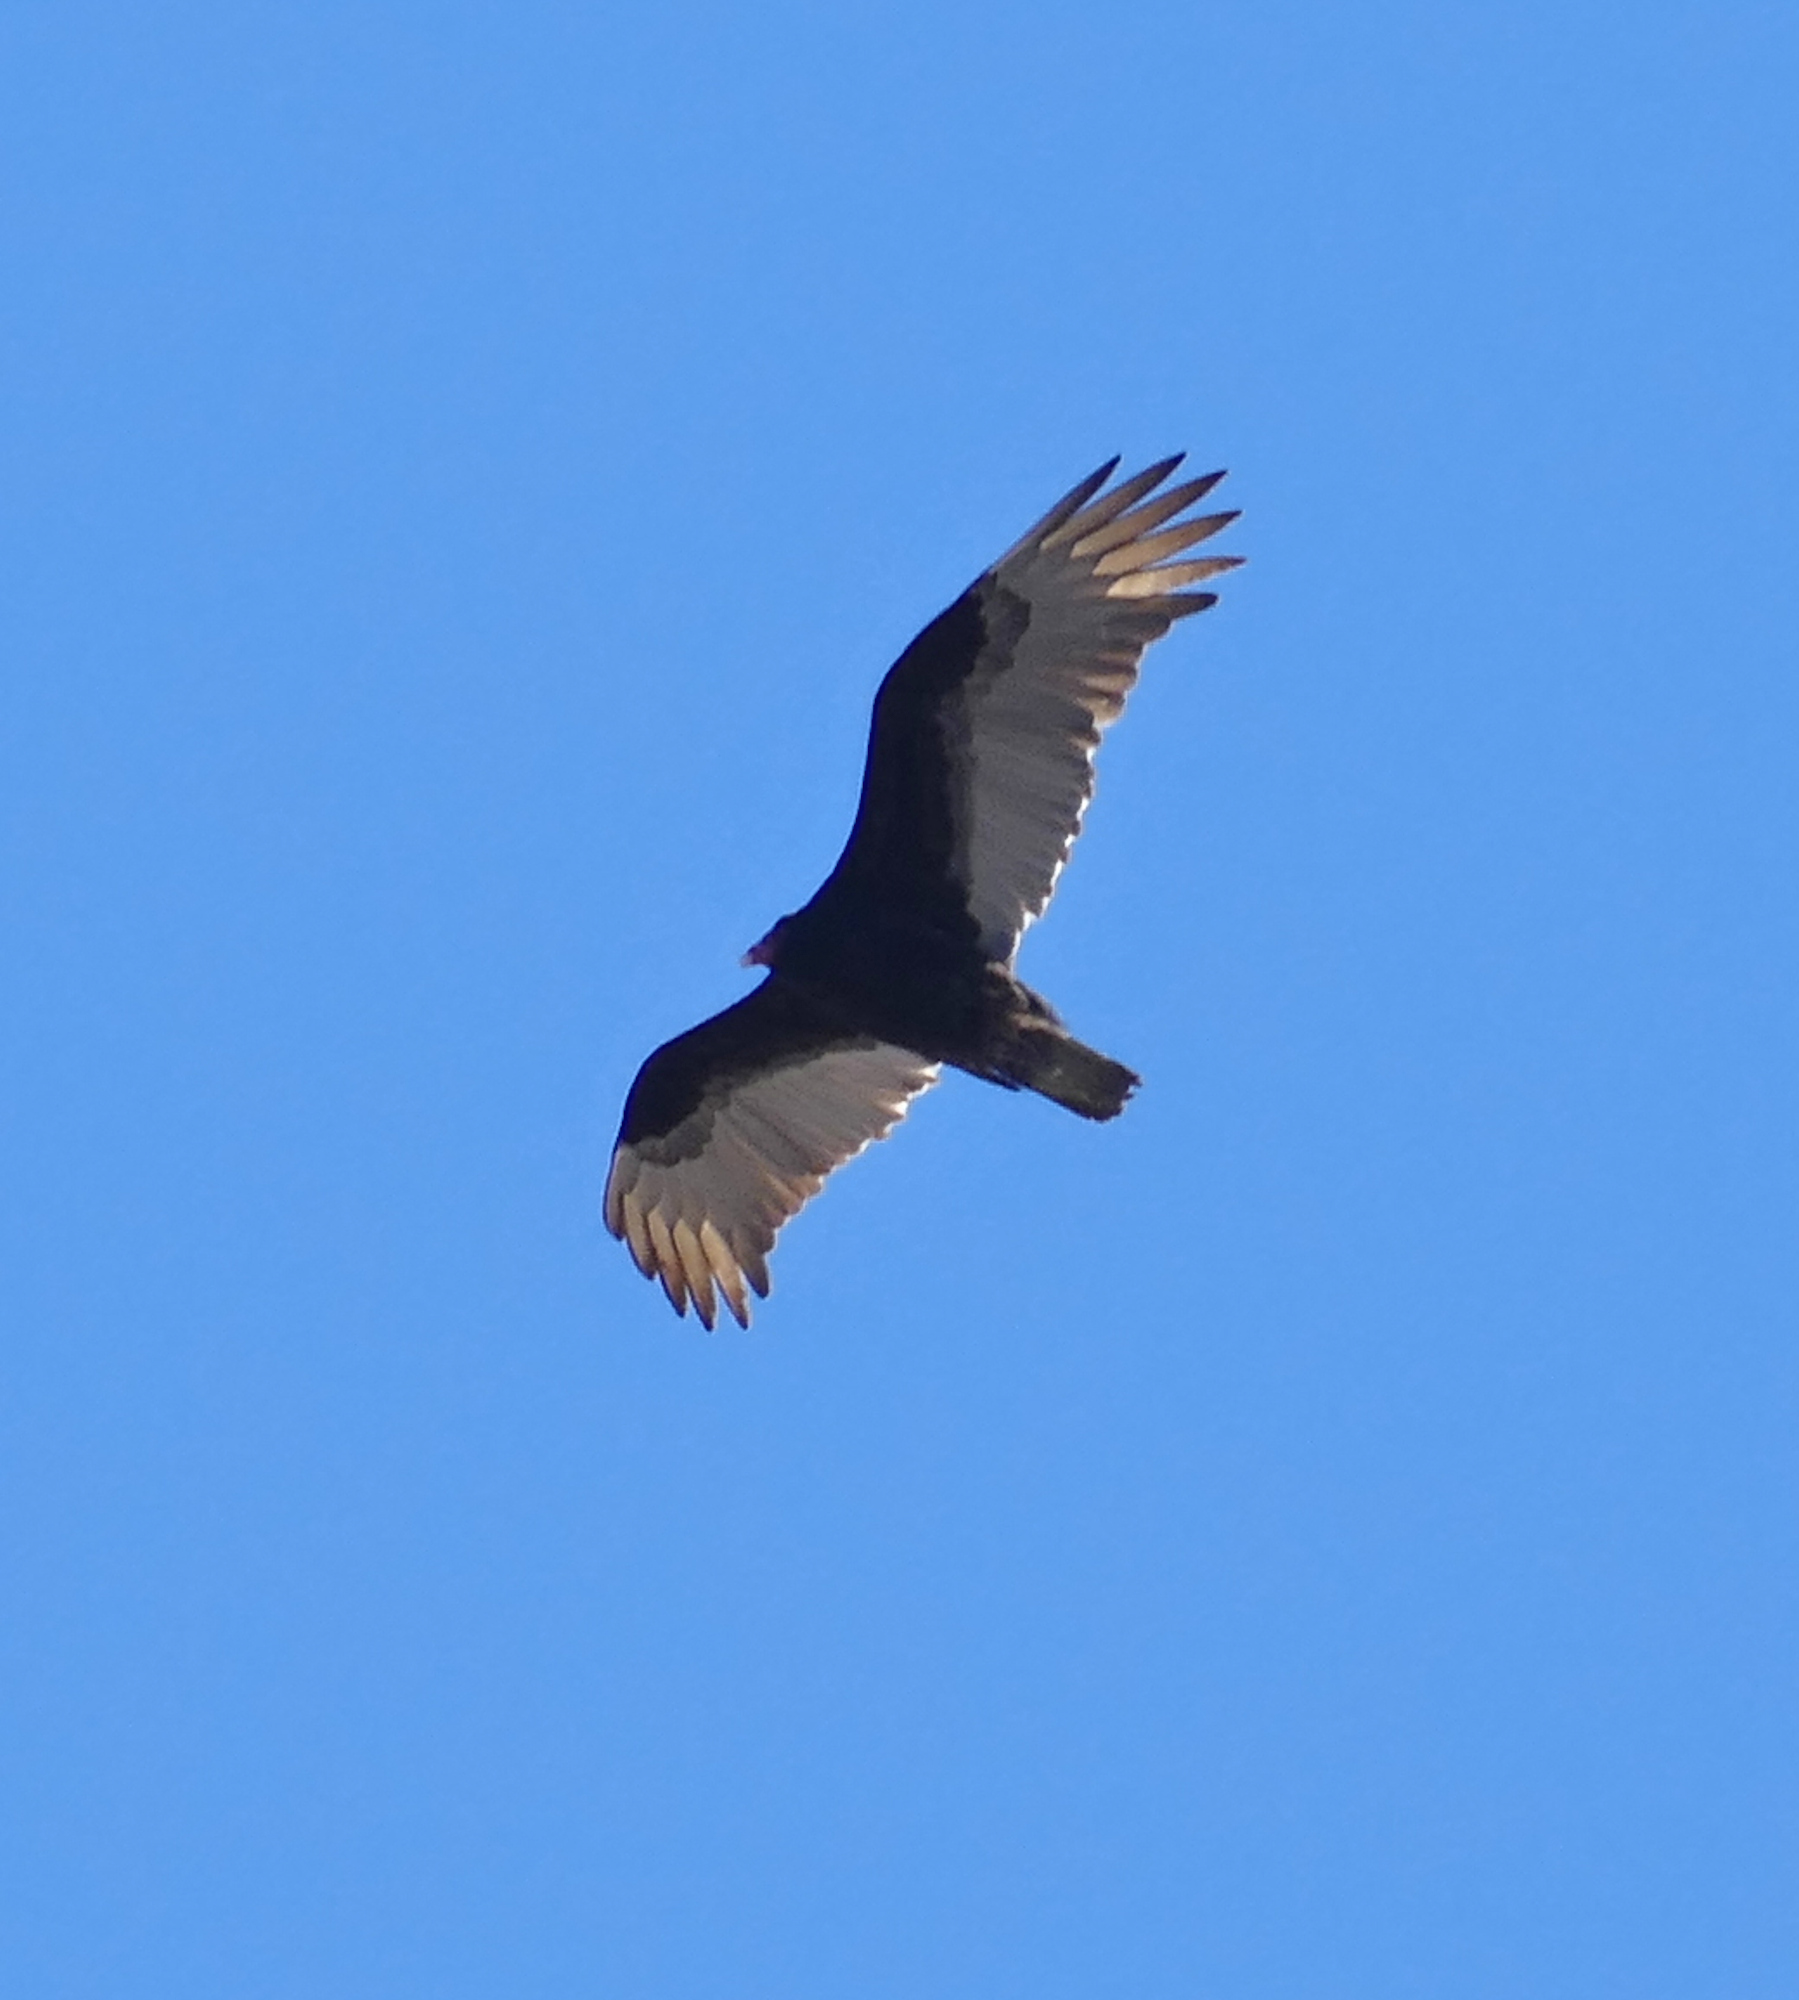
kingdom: Animalia
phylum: Chordata
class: Aves
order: Accipitriformes
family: Cathartidae
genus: Cathartes
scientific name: Cathartes aura
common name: Turkey vulture
